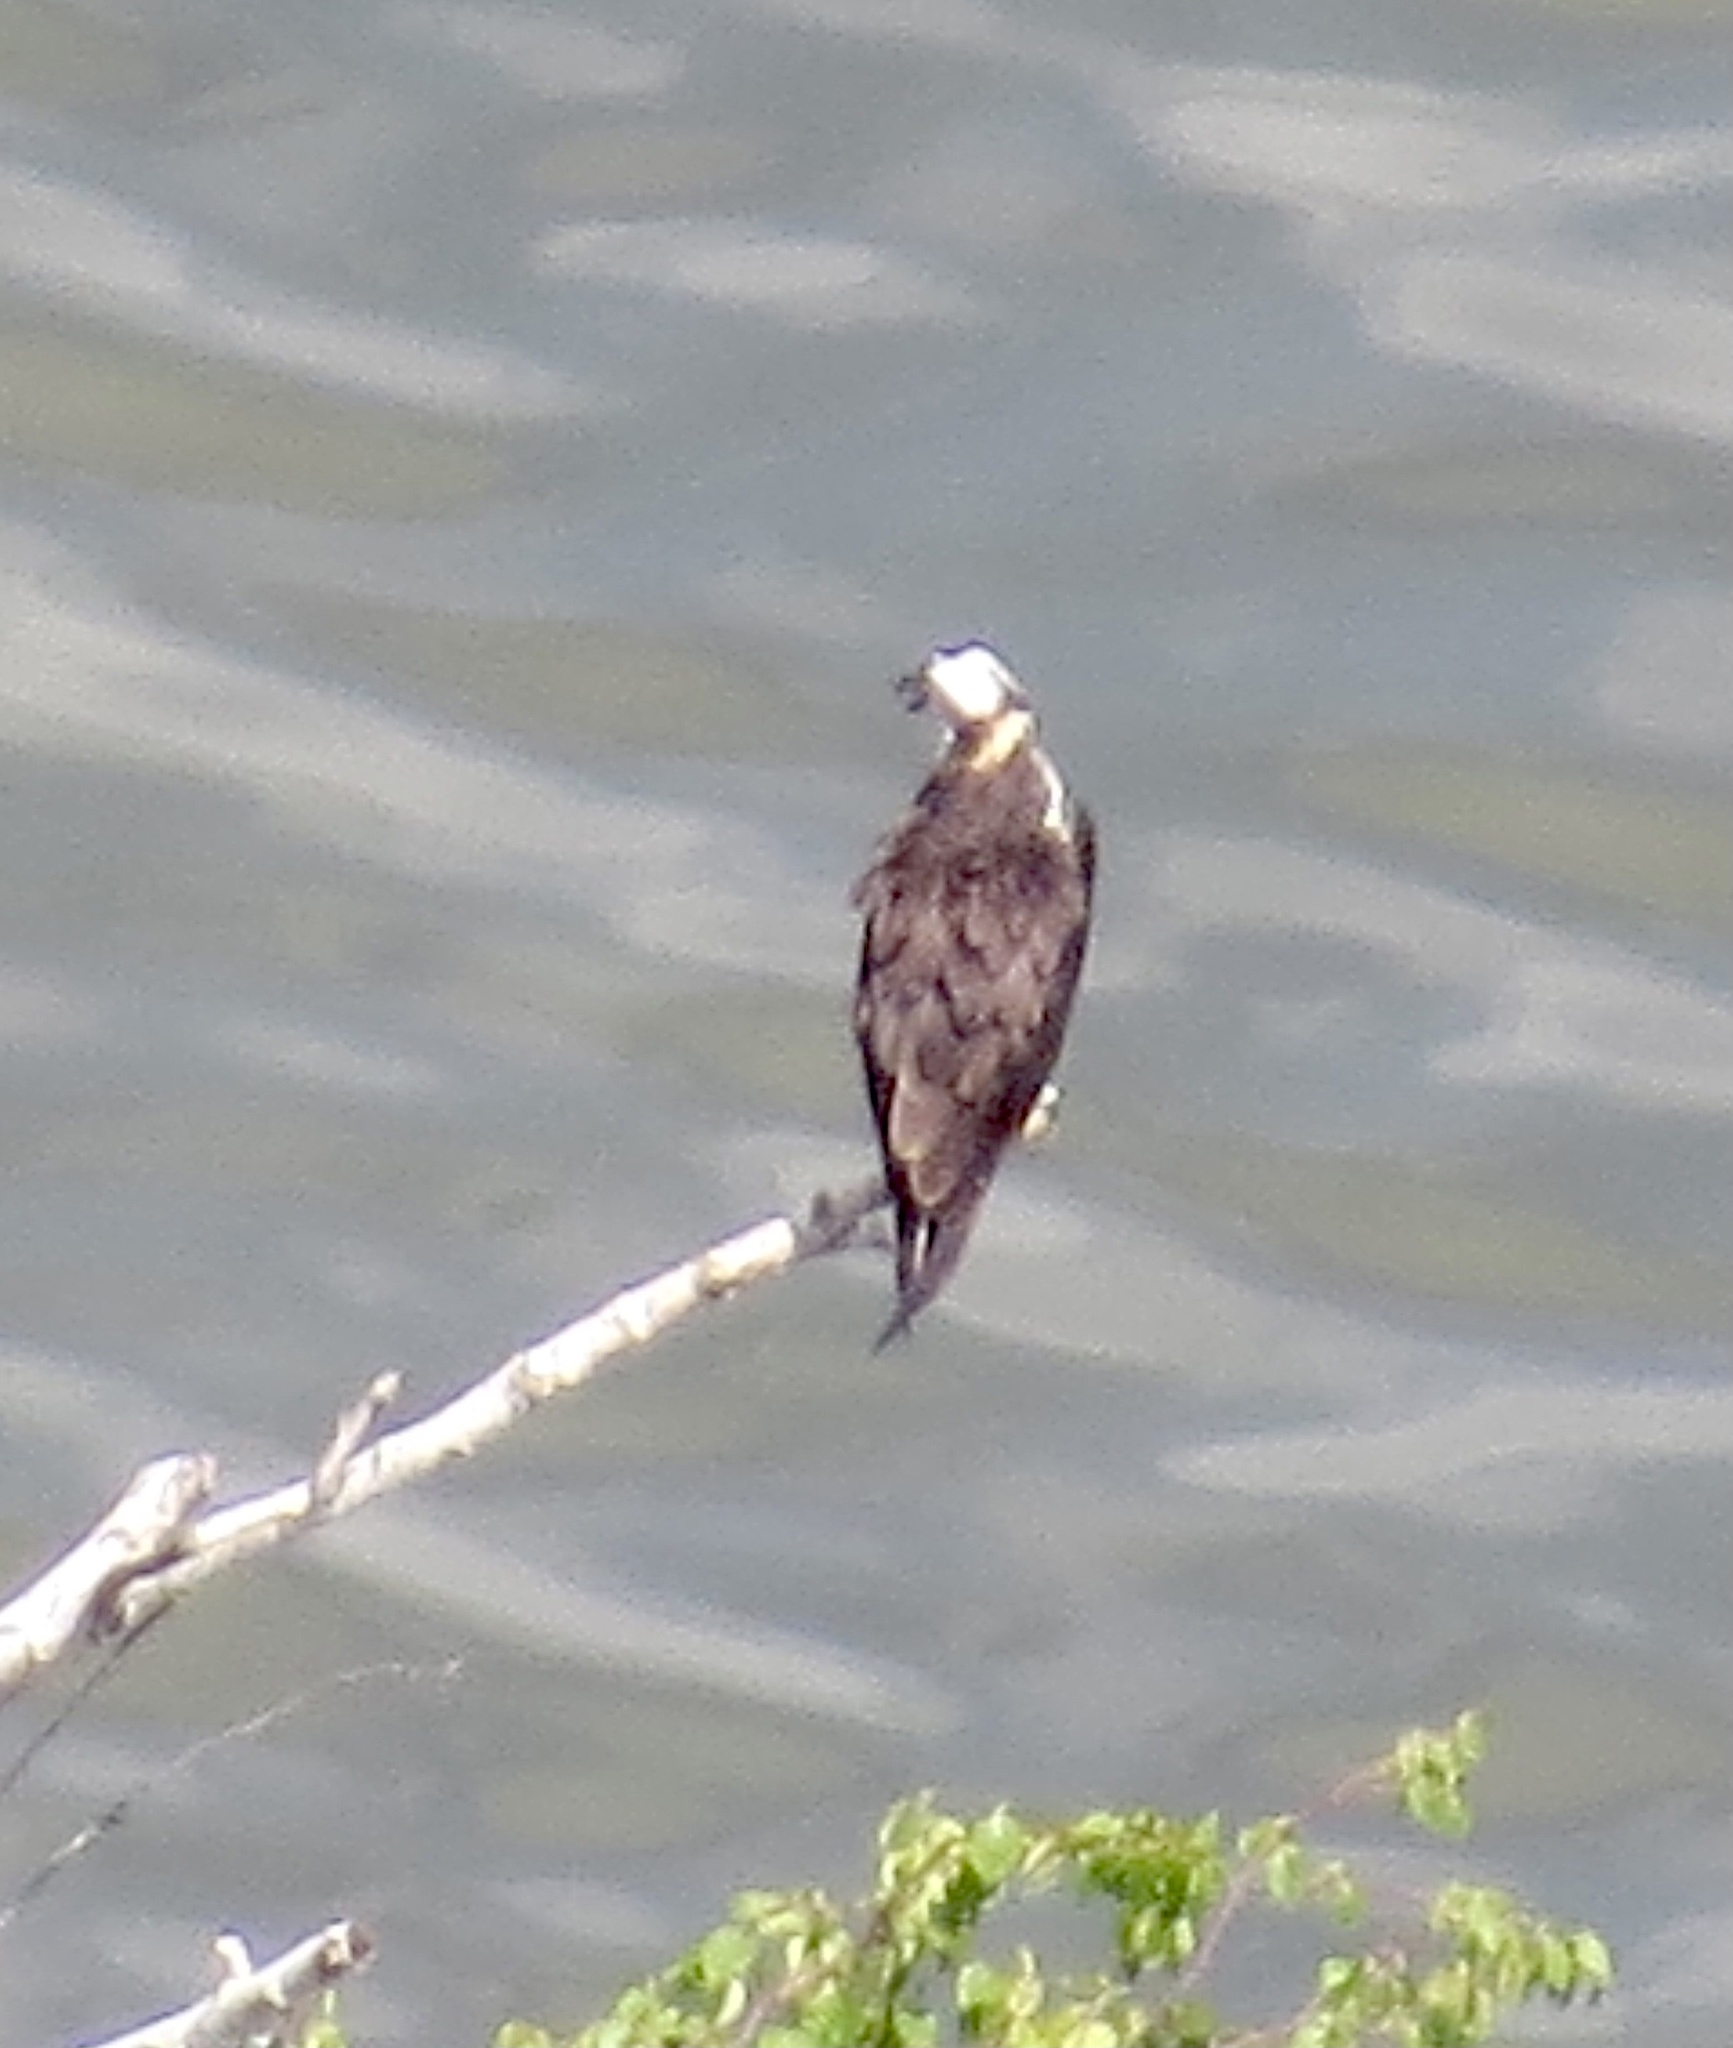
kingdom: Animalia
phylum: Chordata
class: Aves
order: Accipitriformes
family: Pandionidae
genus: Pandion
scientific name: Pandion haliaetus
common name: Osprey
